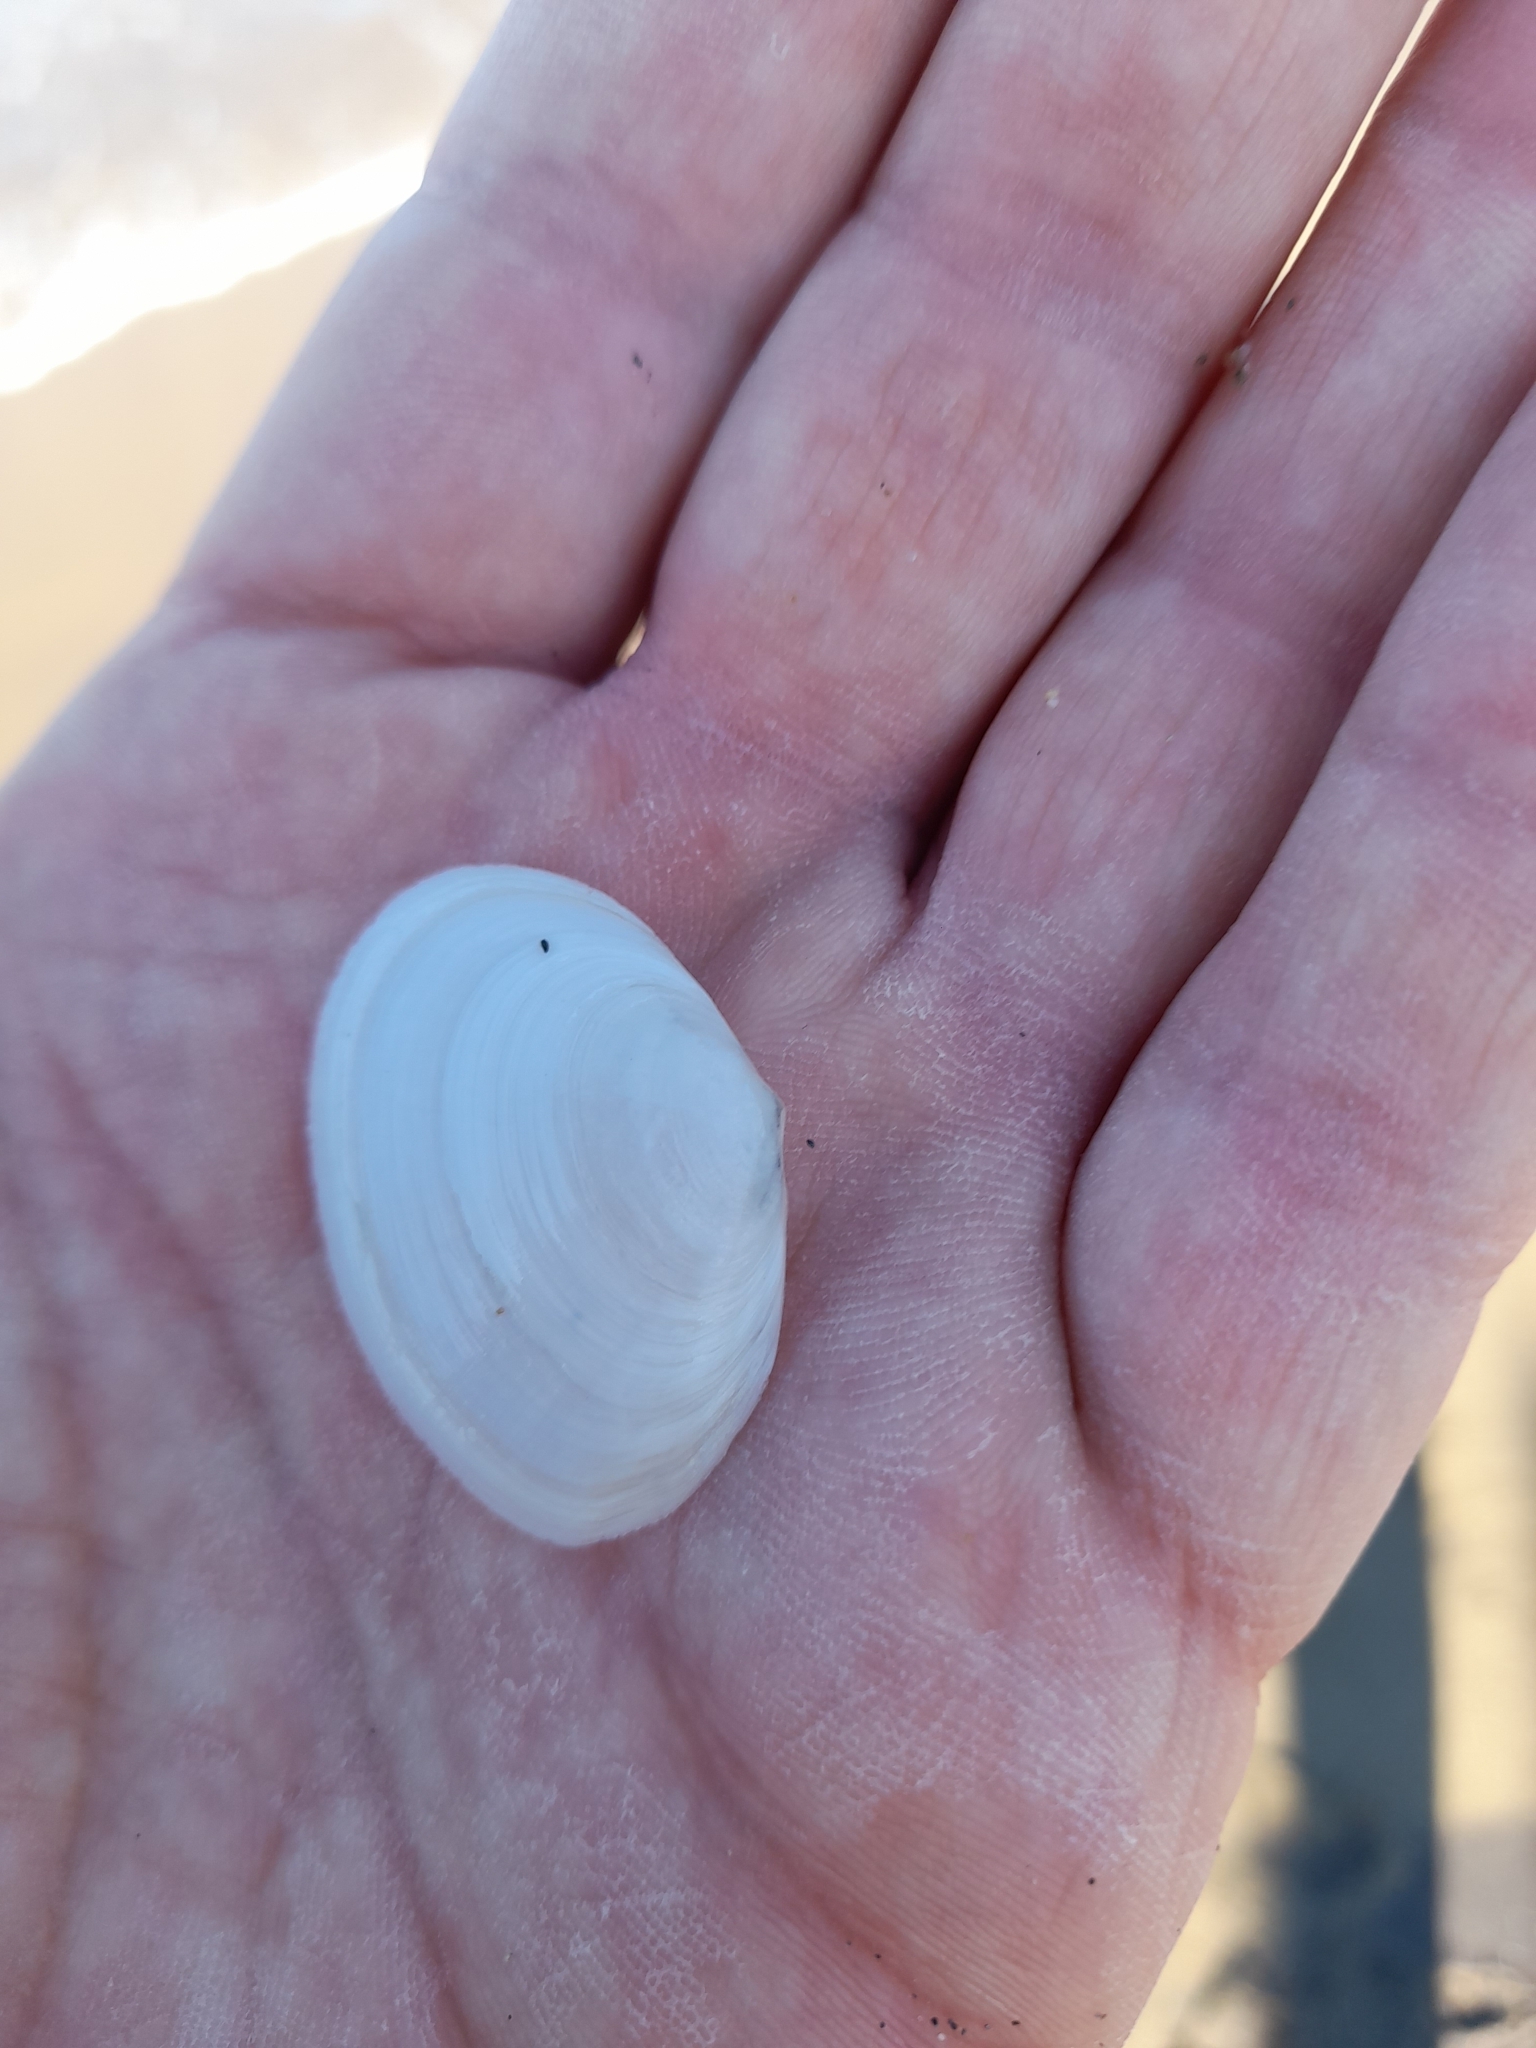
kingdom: Animalia
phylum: Mollusca
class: Bivalvia
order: Cardiida
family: Semelidae
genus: Scrobicularia
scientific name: Scrobicularia plana
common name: Peppery furrow shell
